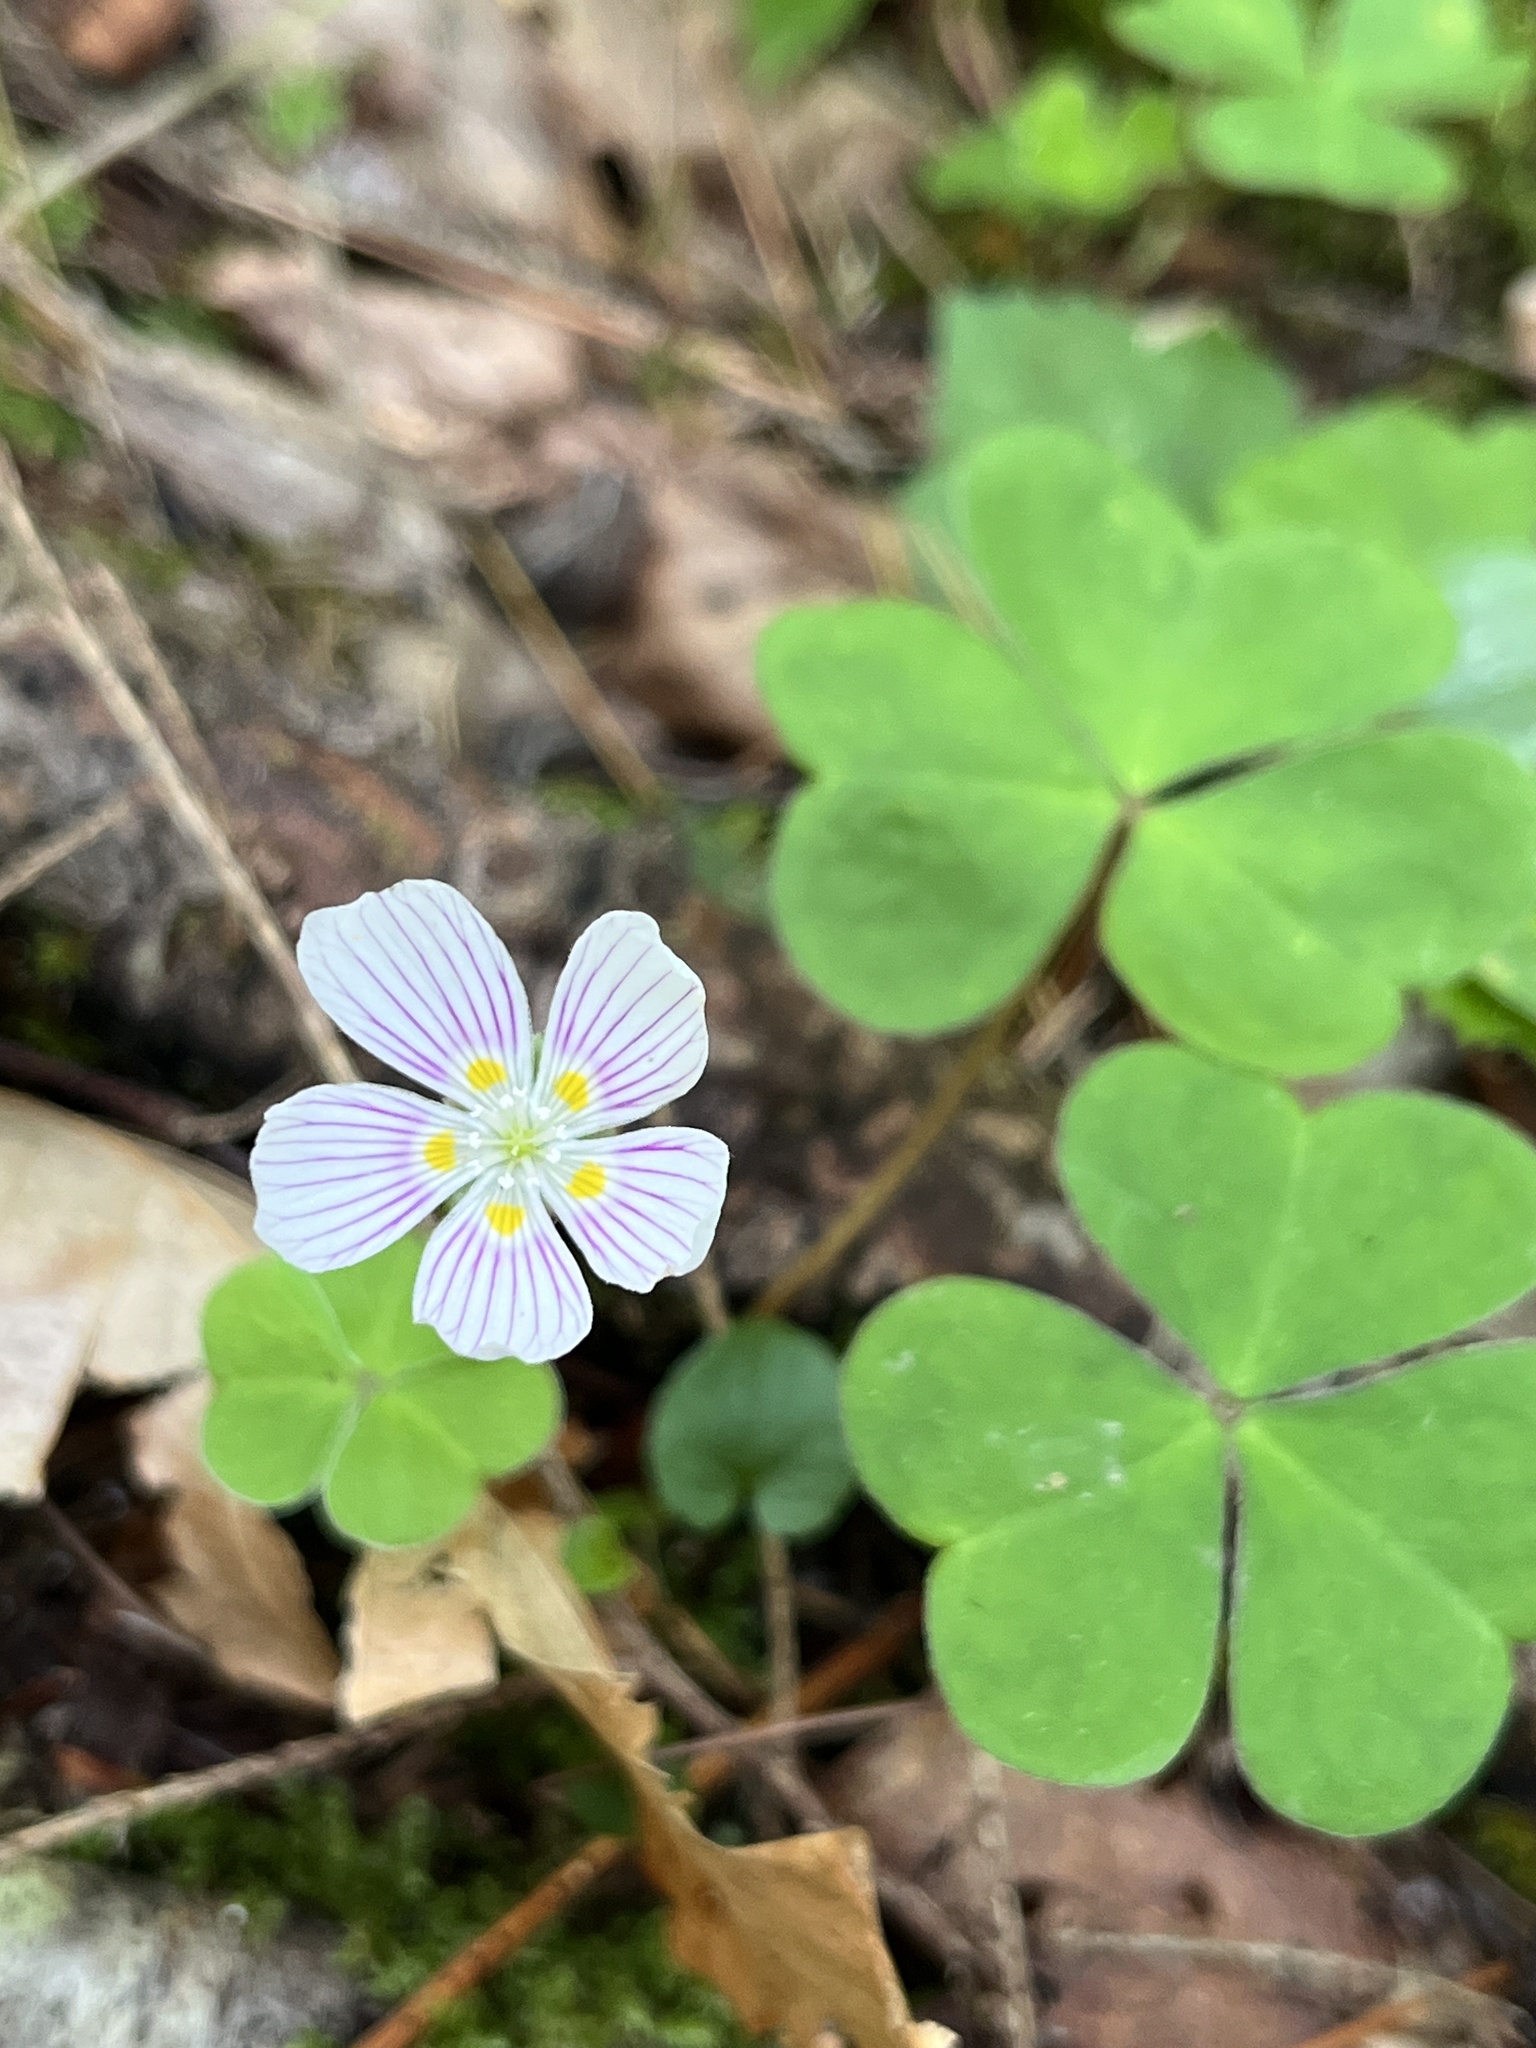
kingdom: Plantae
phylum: Tracheophyta
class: Magnoliopsida
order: Oxalidales
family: Oxalidaceae
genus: Oxalis
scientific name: Oxalis montana
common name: American wood-sorrel
